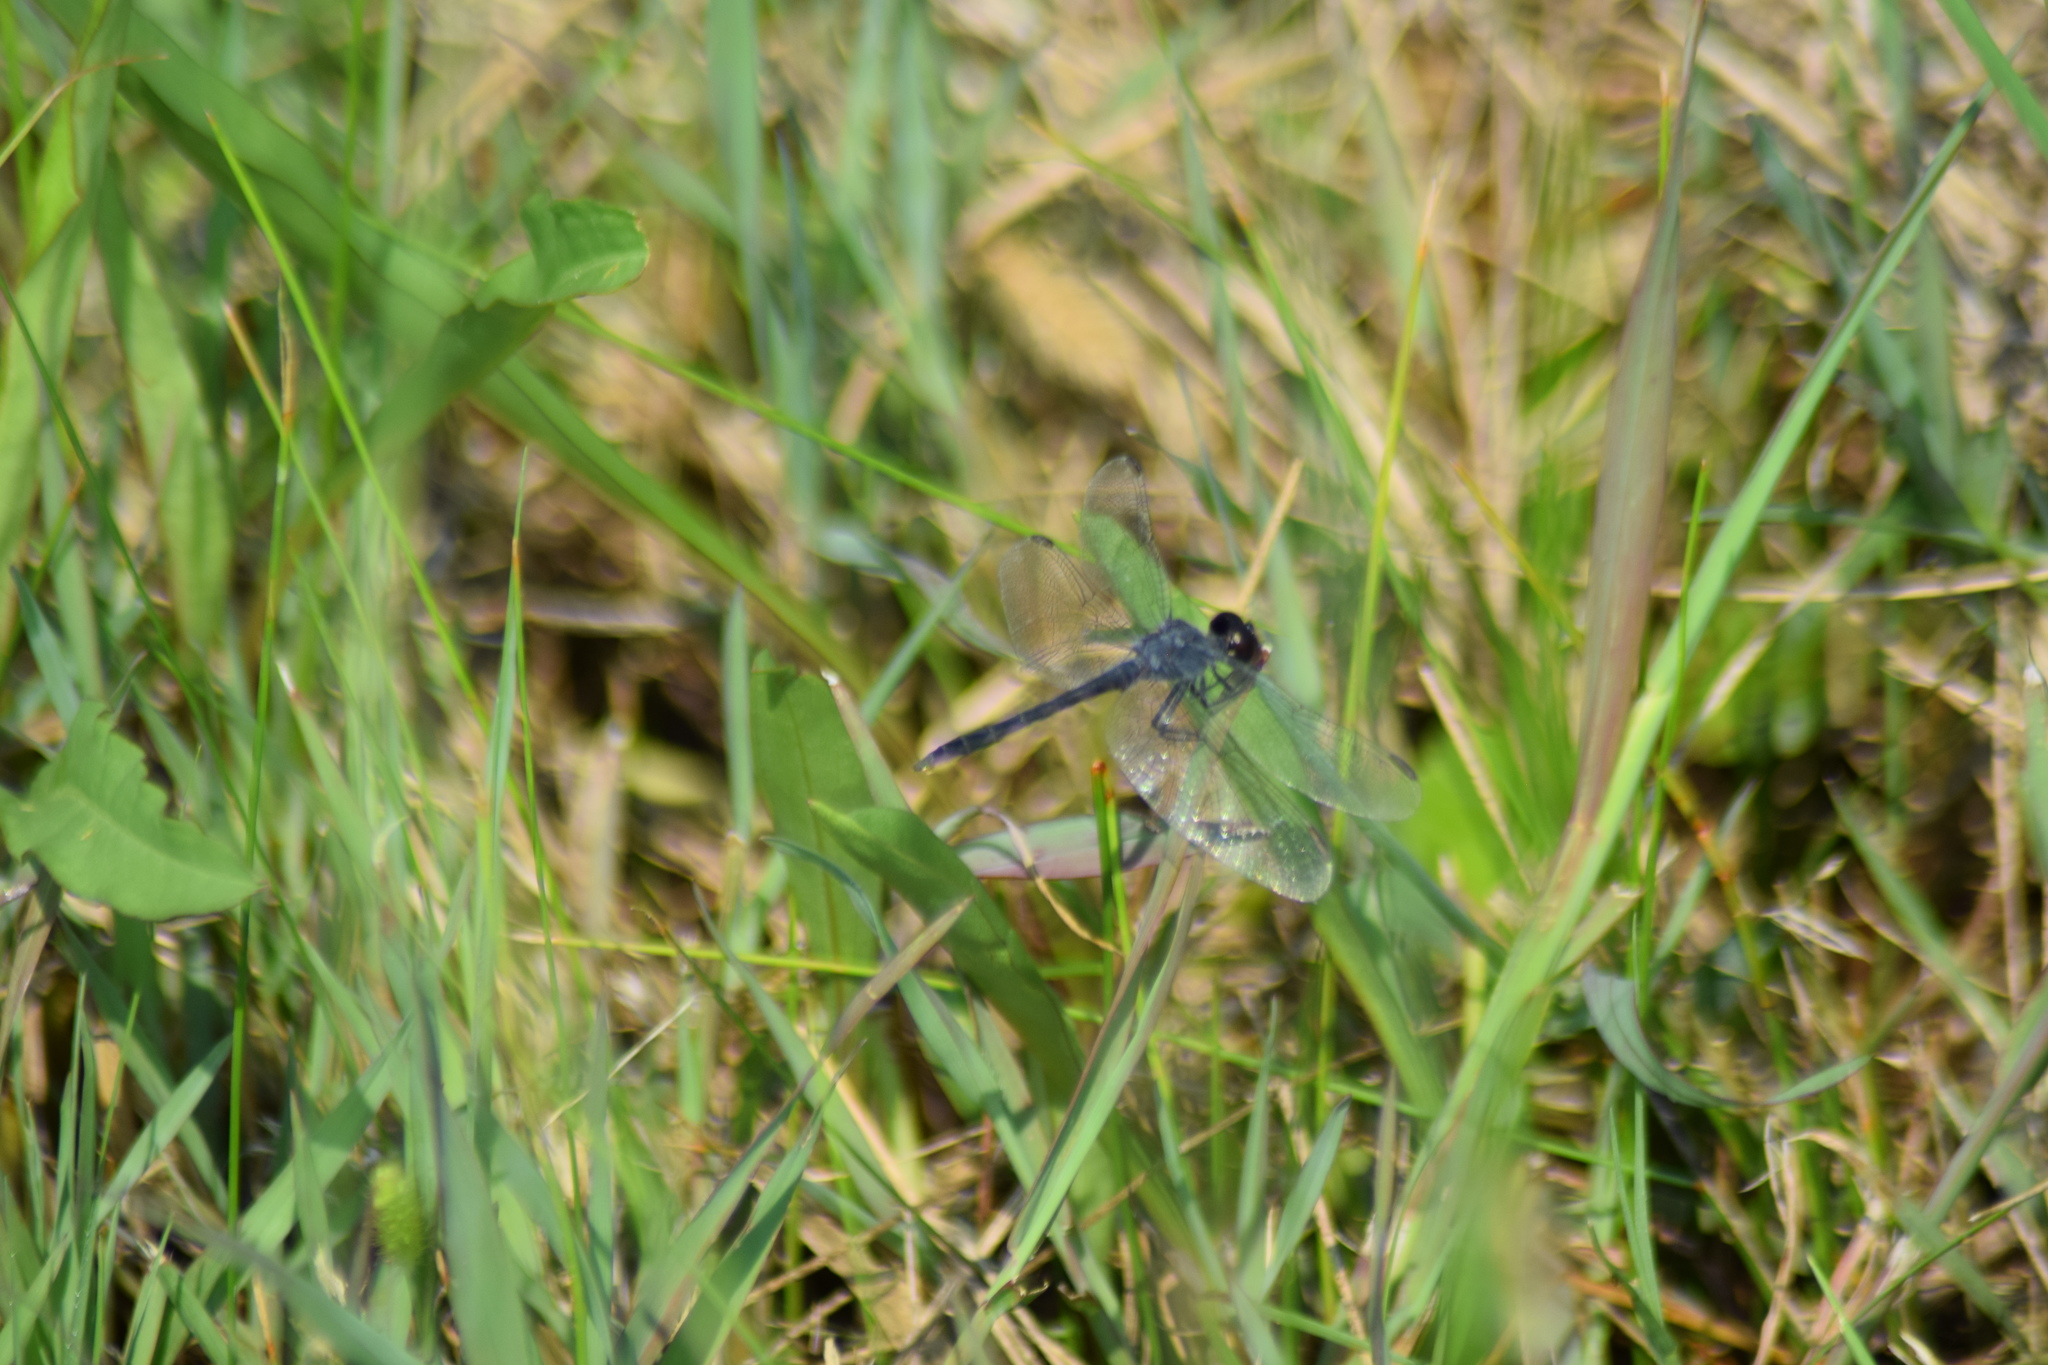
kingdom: Animalia
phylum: Arthropoda
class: Insecta
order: Odonata
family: Libellulidae
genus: Erythrodiplax
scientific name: Erythrodiplax berenice
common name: Seaside dragonlet
